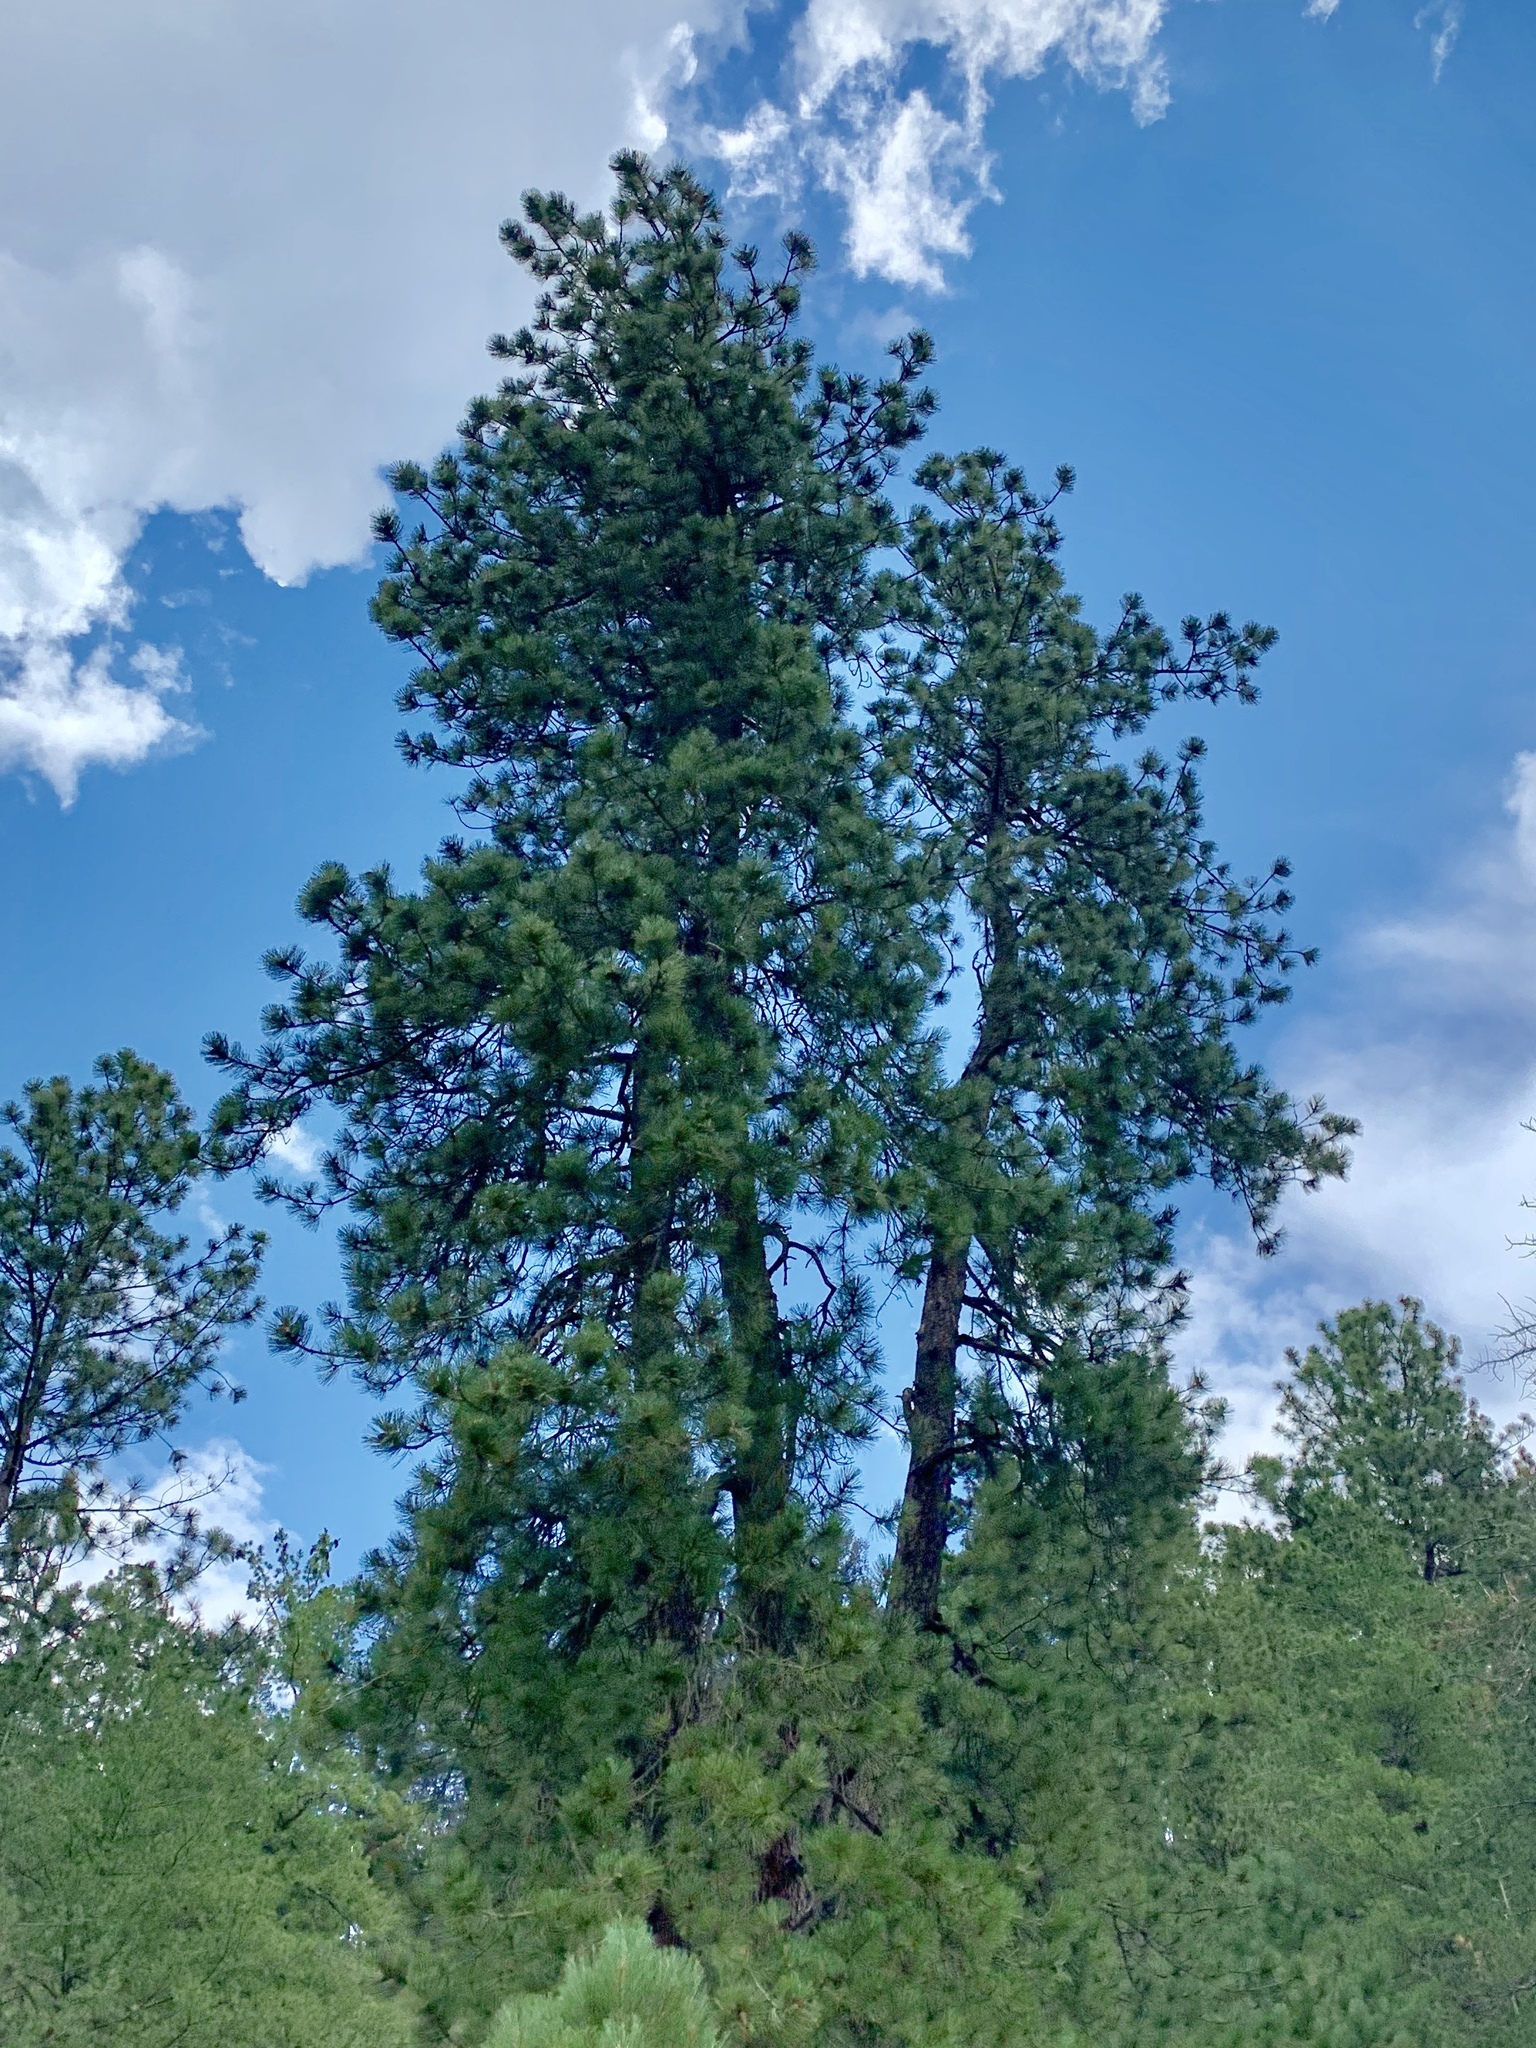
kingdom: Plantae
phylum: Tracheophyta
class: Pinopsida
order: Pinales
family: Pinaceae
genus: Pinus
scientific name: Pinus ponderosa
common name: Western yellow-pine
